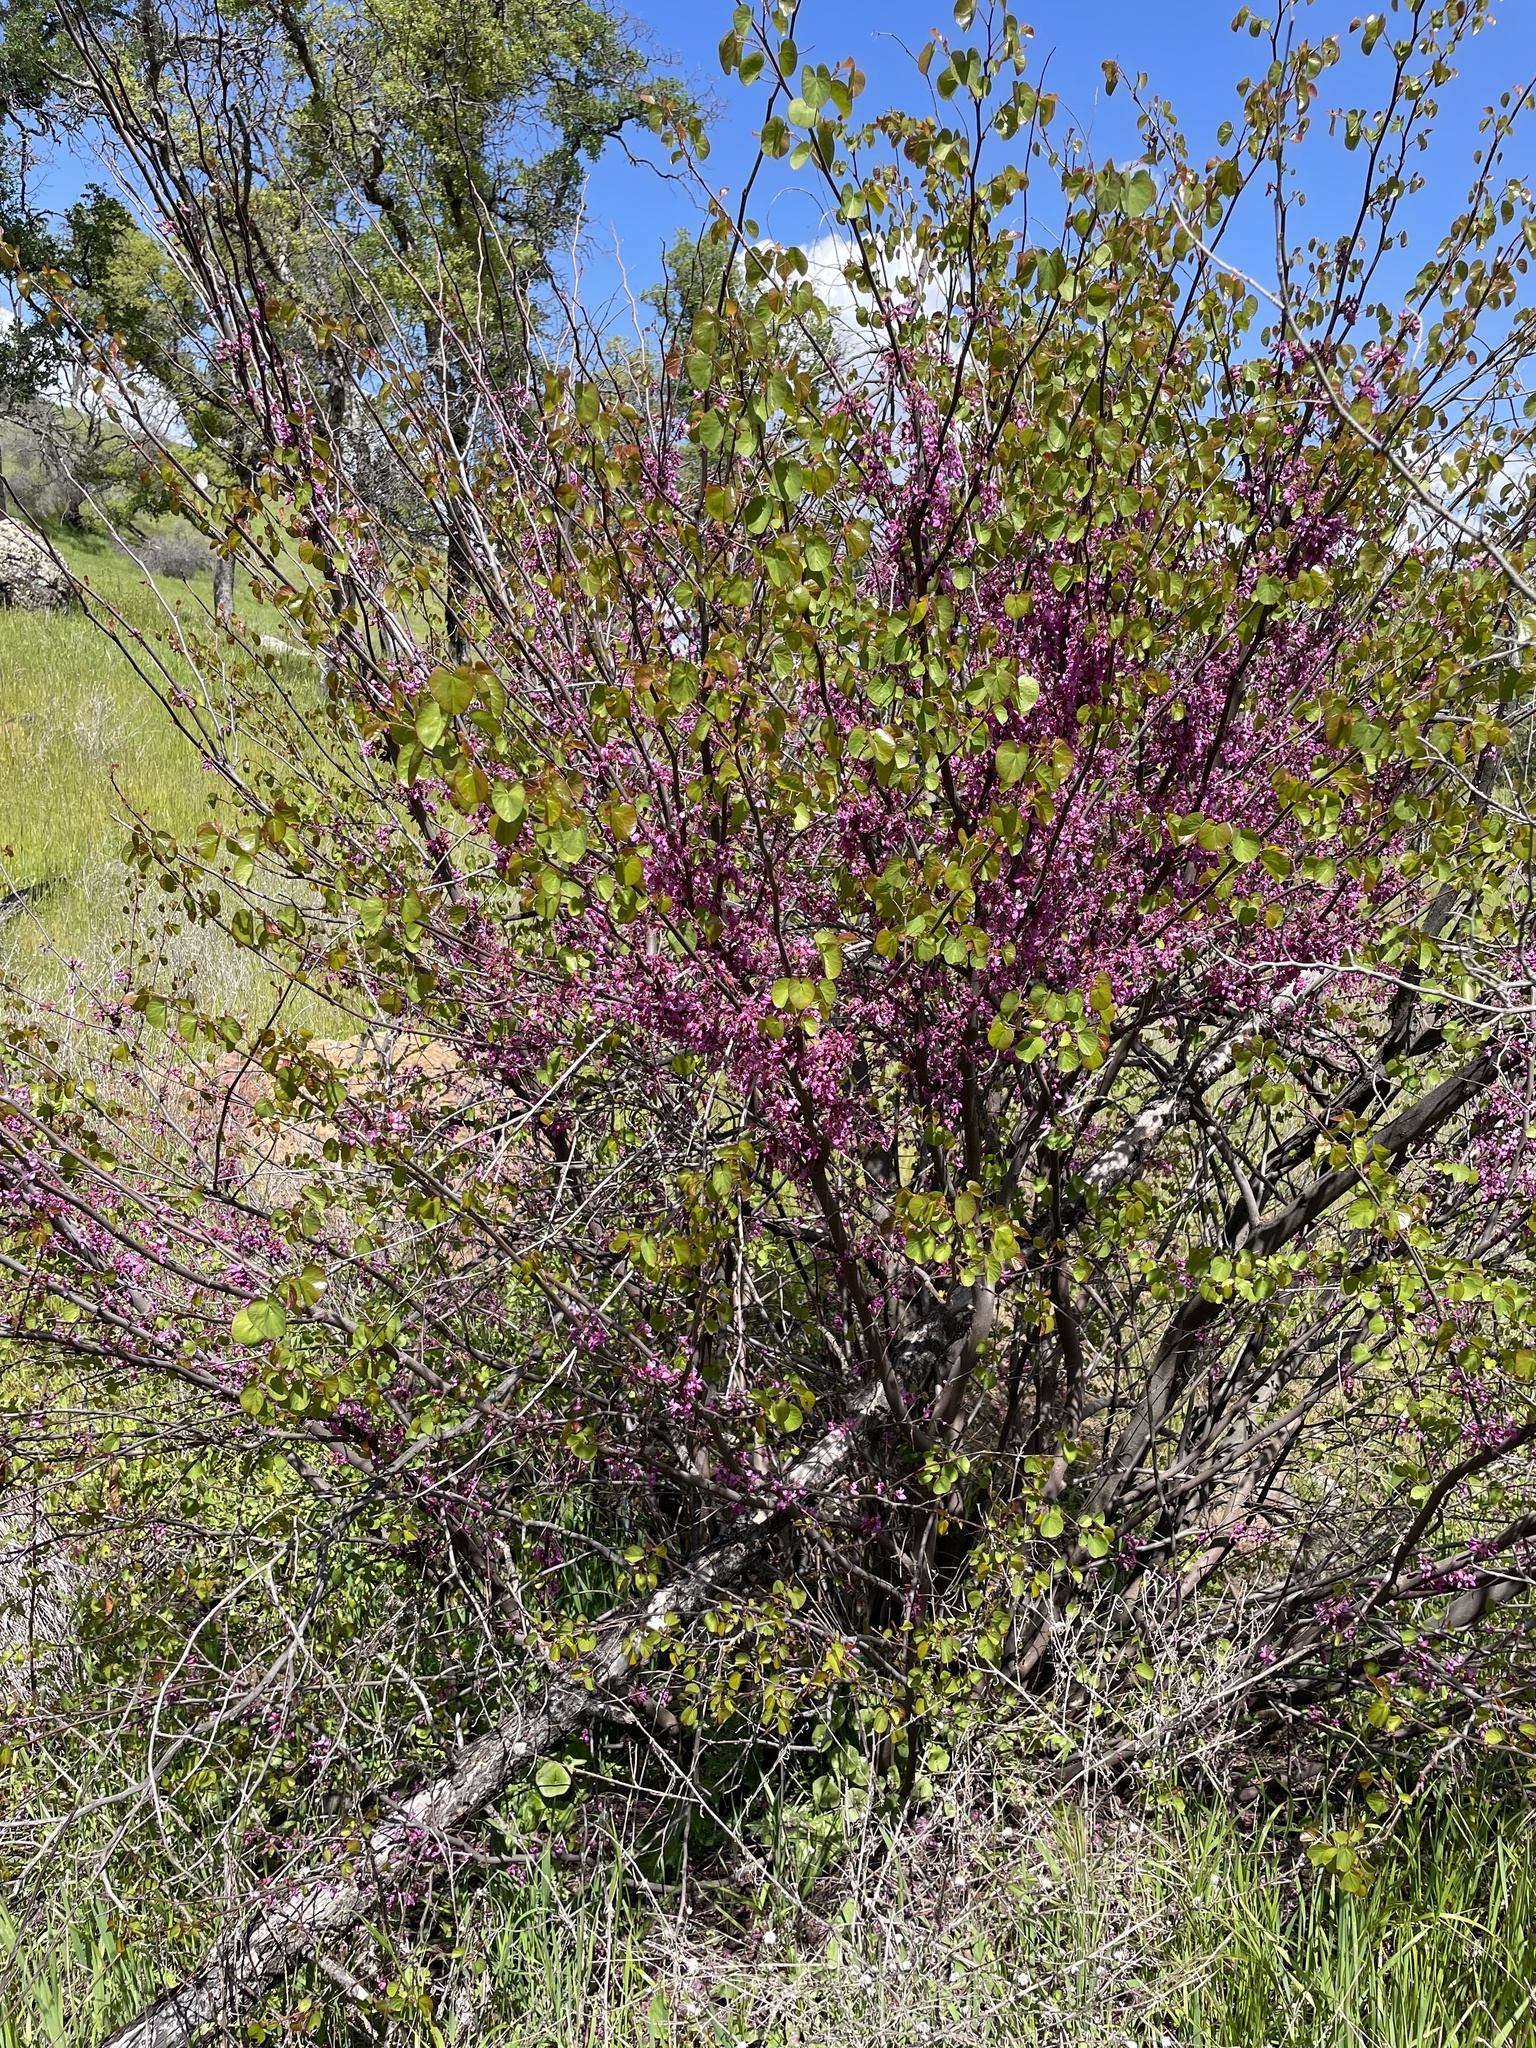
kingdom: Plantae
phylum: Tracheophyta
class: Magnoliopsida
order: Fabales
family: Fabaceae
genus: Cercis
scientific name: Cercis occidentalis
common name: California redbud
